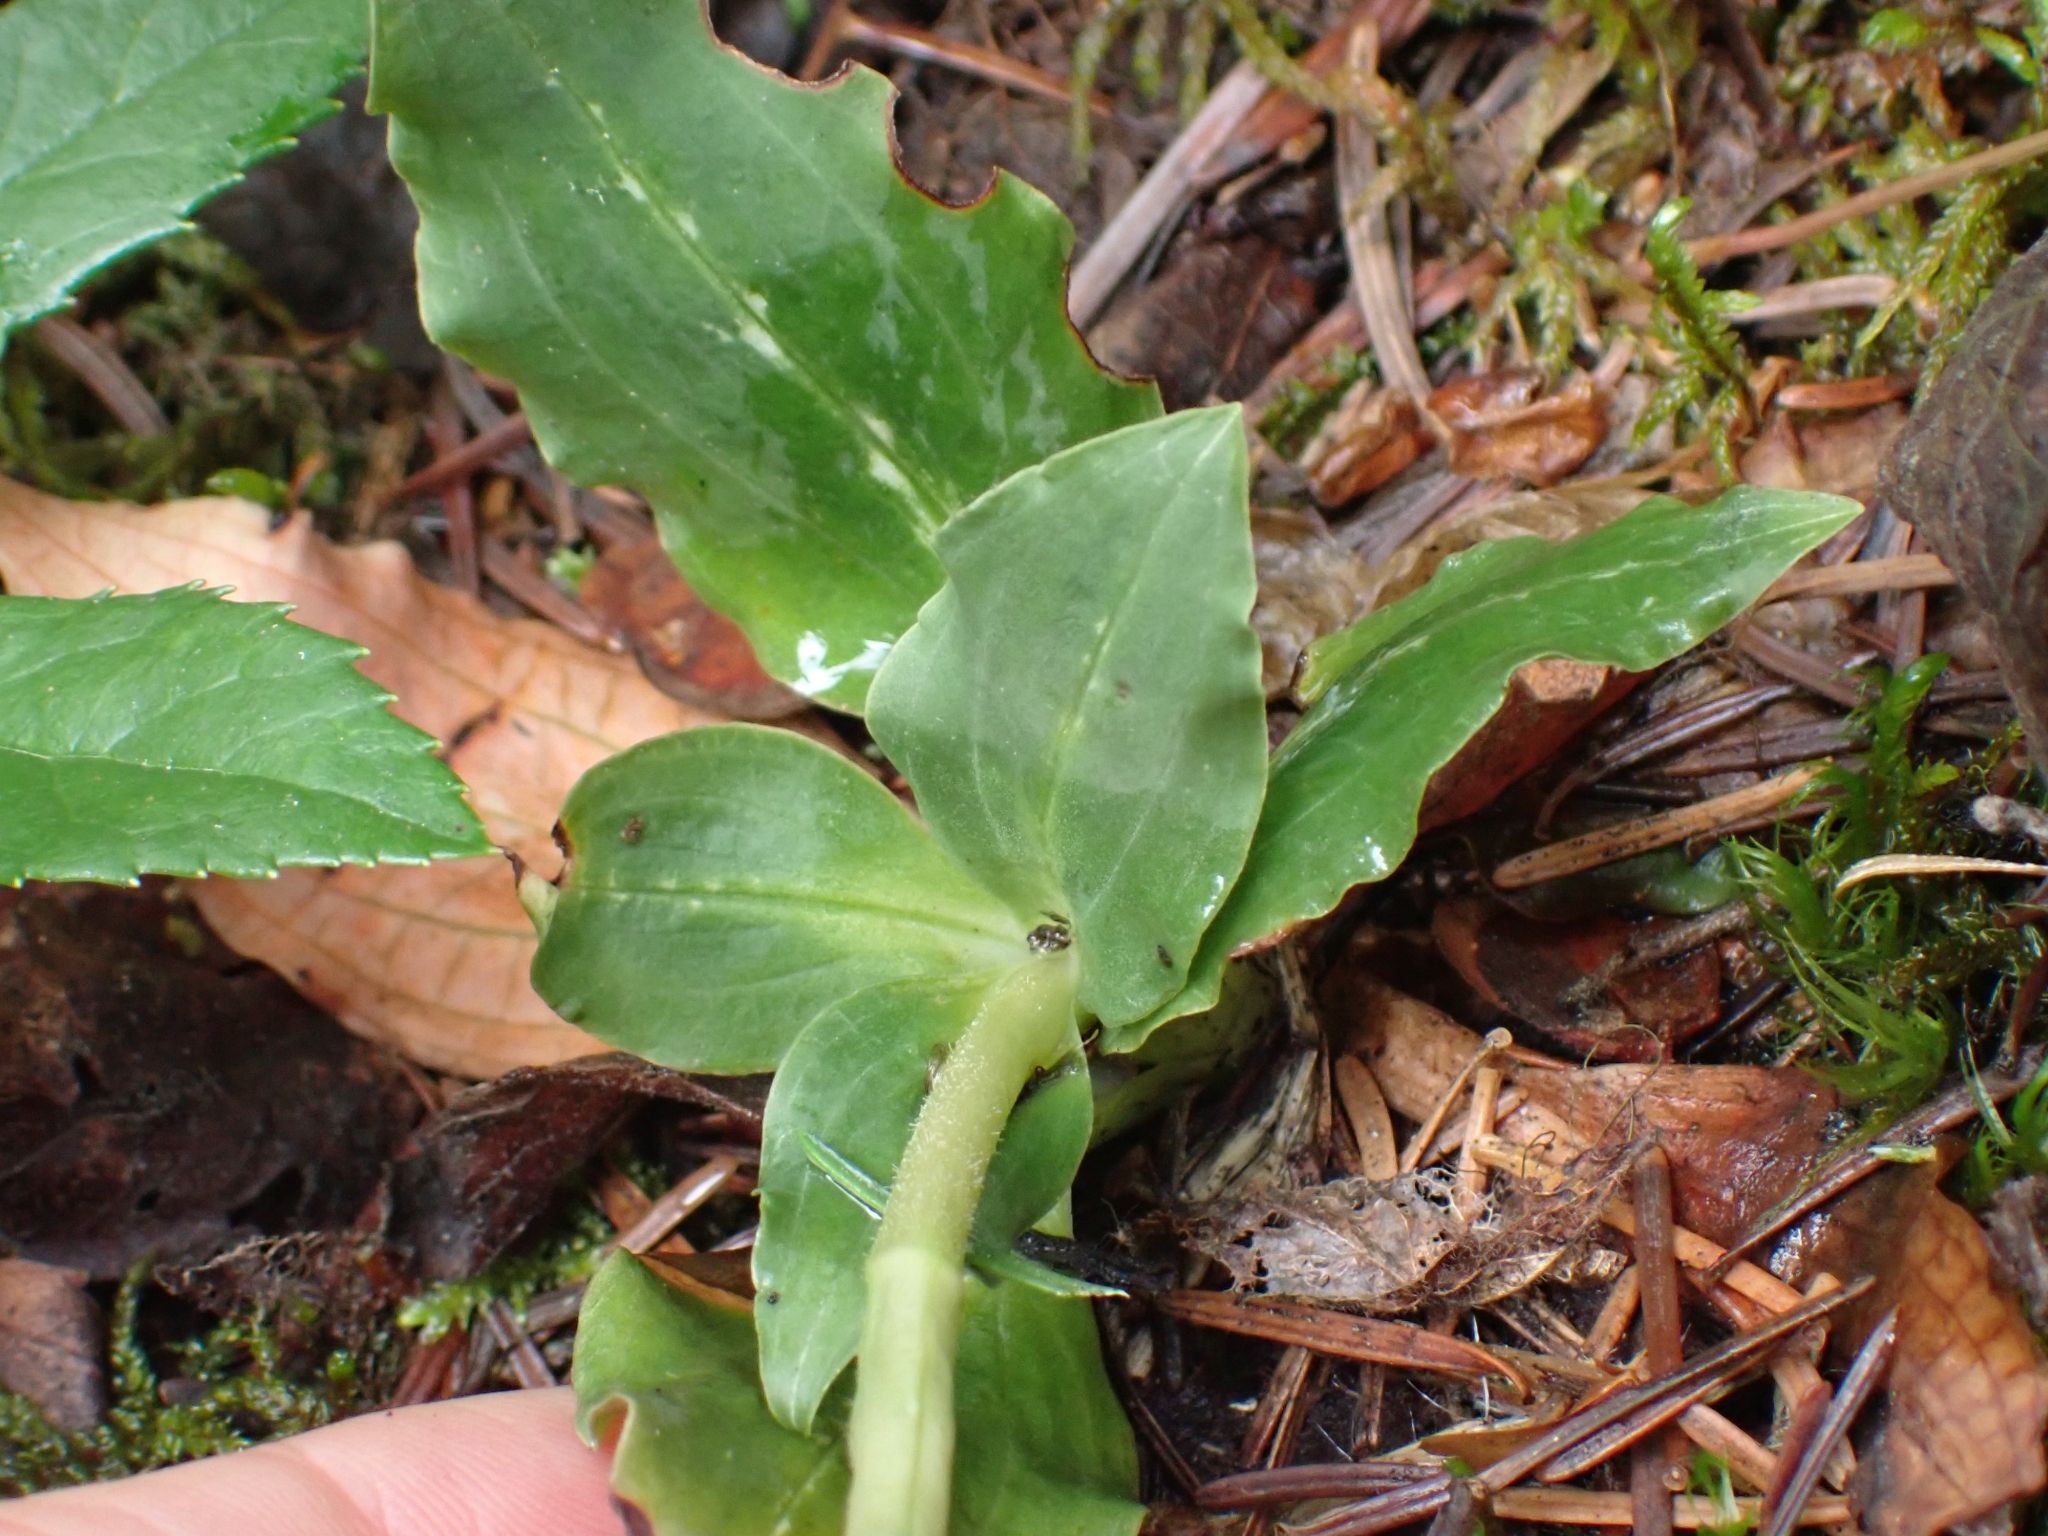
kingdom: Plantae
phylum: Tracheophyta
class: Liliopsida
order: Asparagales
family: Orchidaceae
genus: Goodyera
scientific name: Goodyera oblongifolia
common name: Giant rattlesnake-plantain
